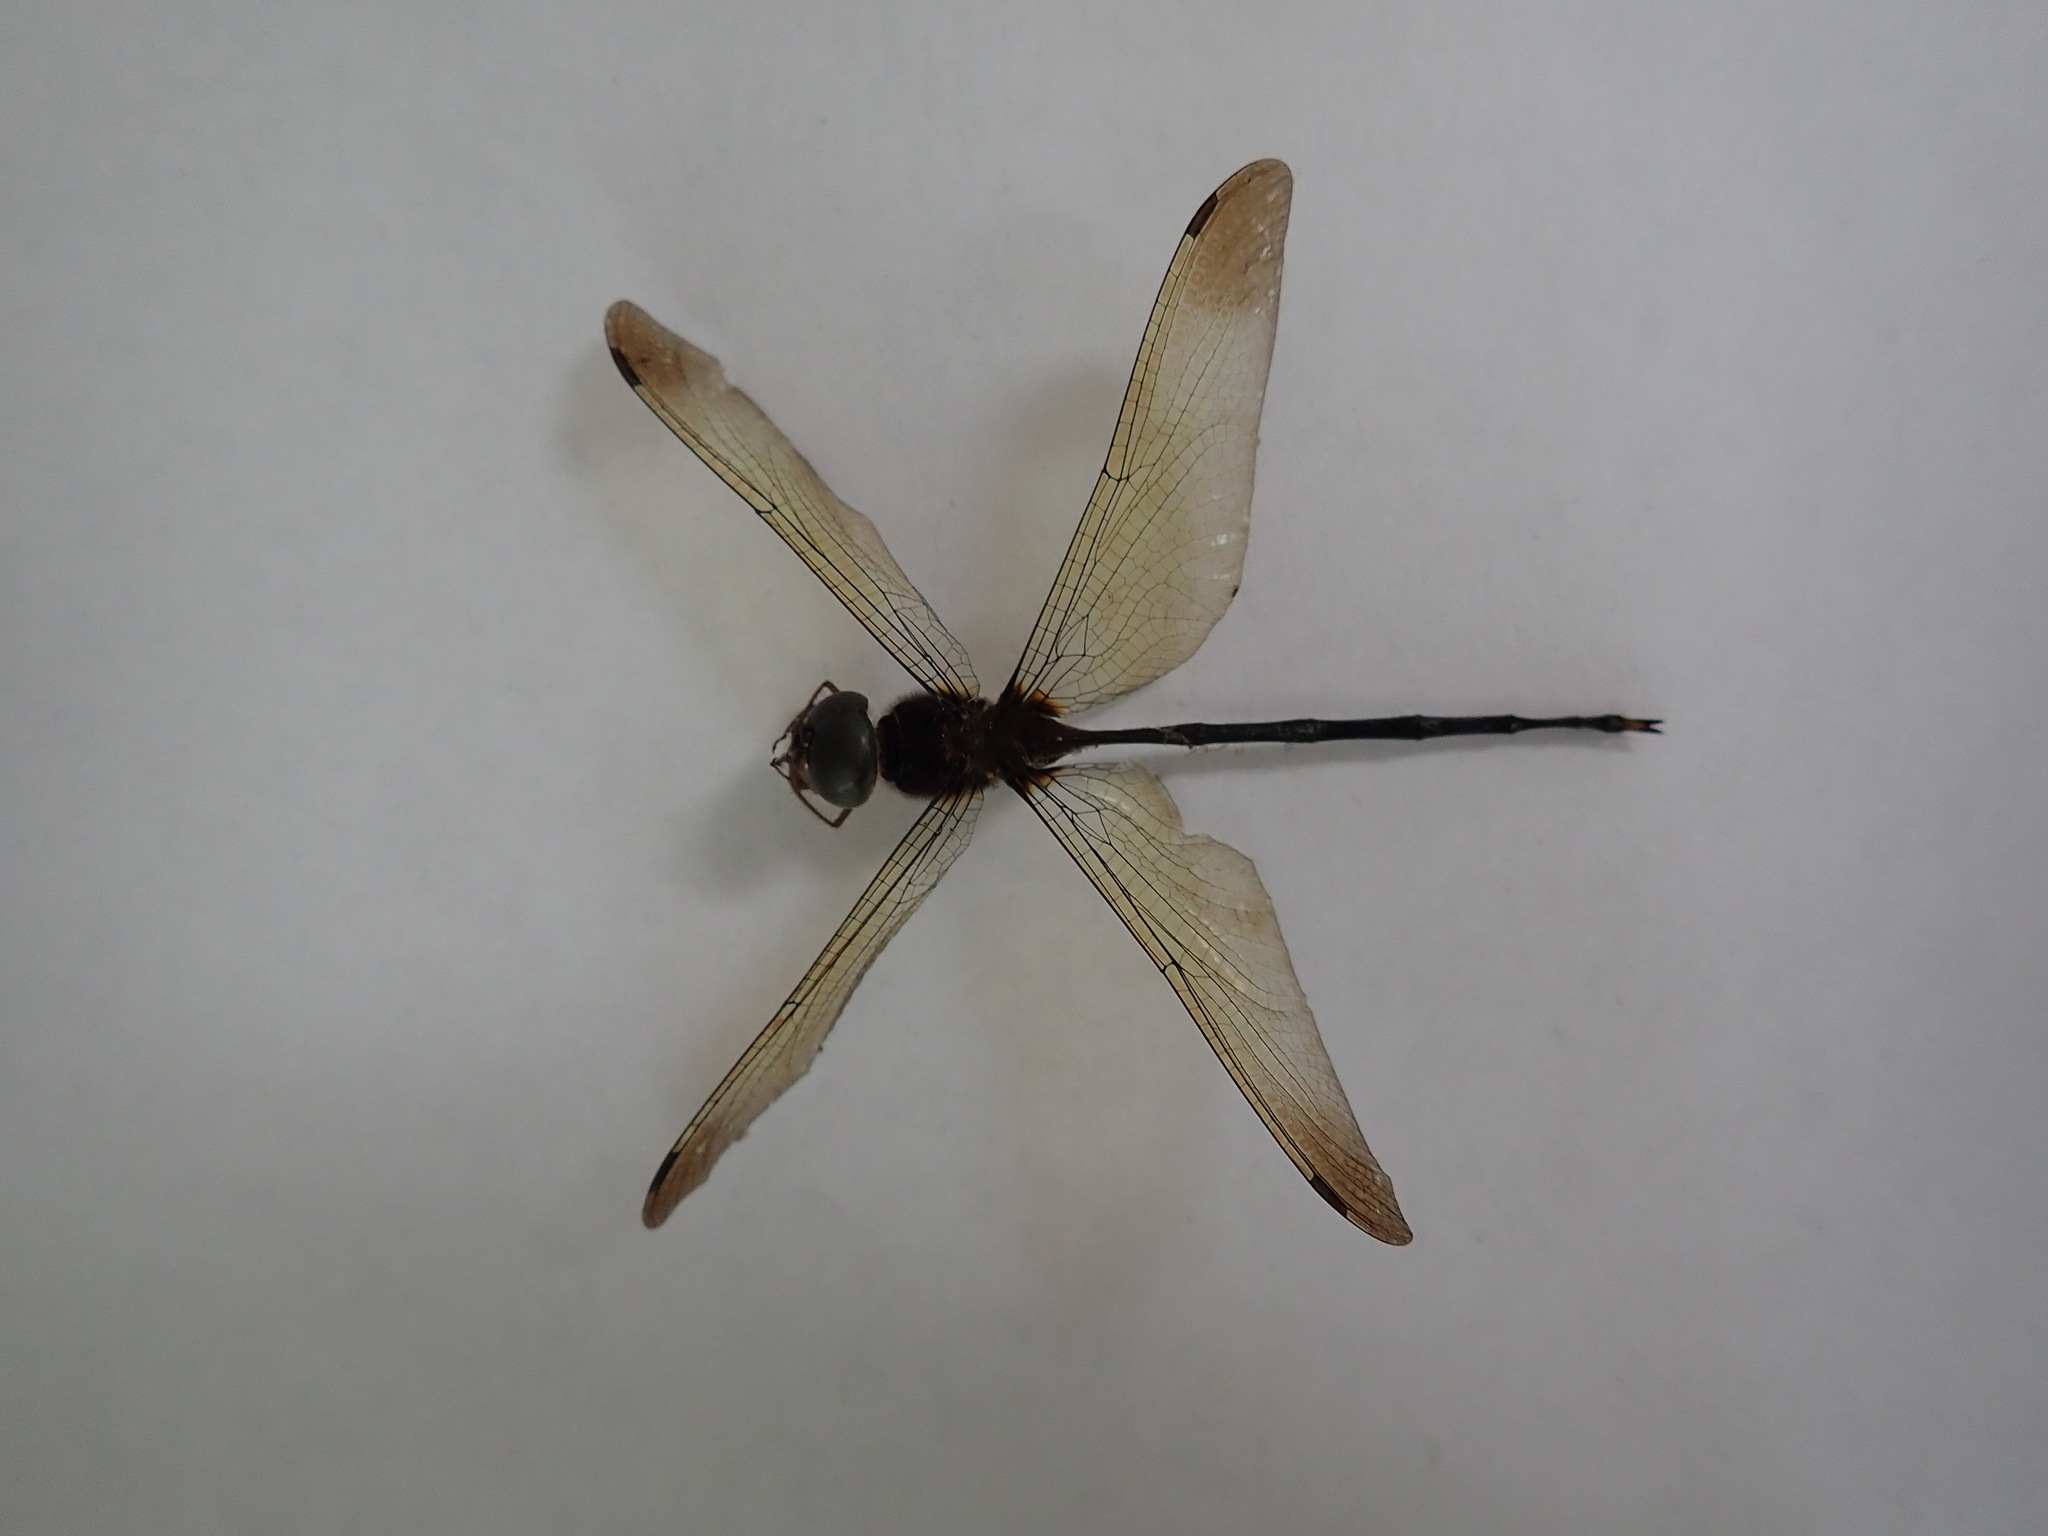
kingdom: Animalia
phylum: Arthropoda
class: Insecta
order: Odonata
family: Libellulidae
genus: Zyxomma
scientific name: Zyxomma petiolatum
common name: Dingy dusk-darter
